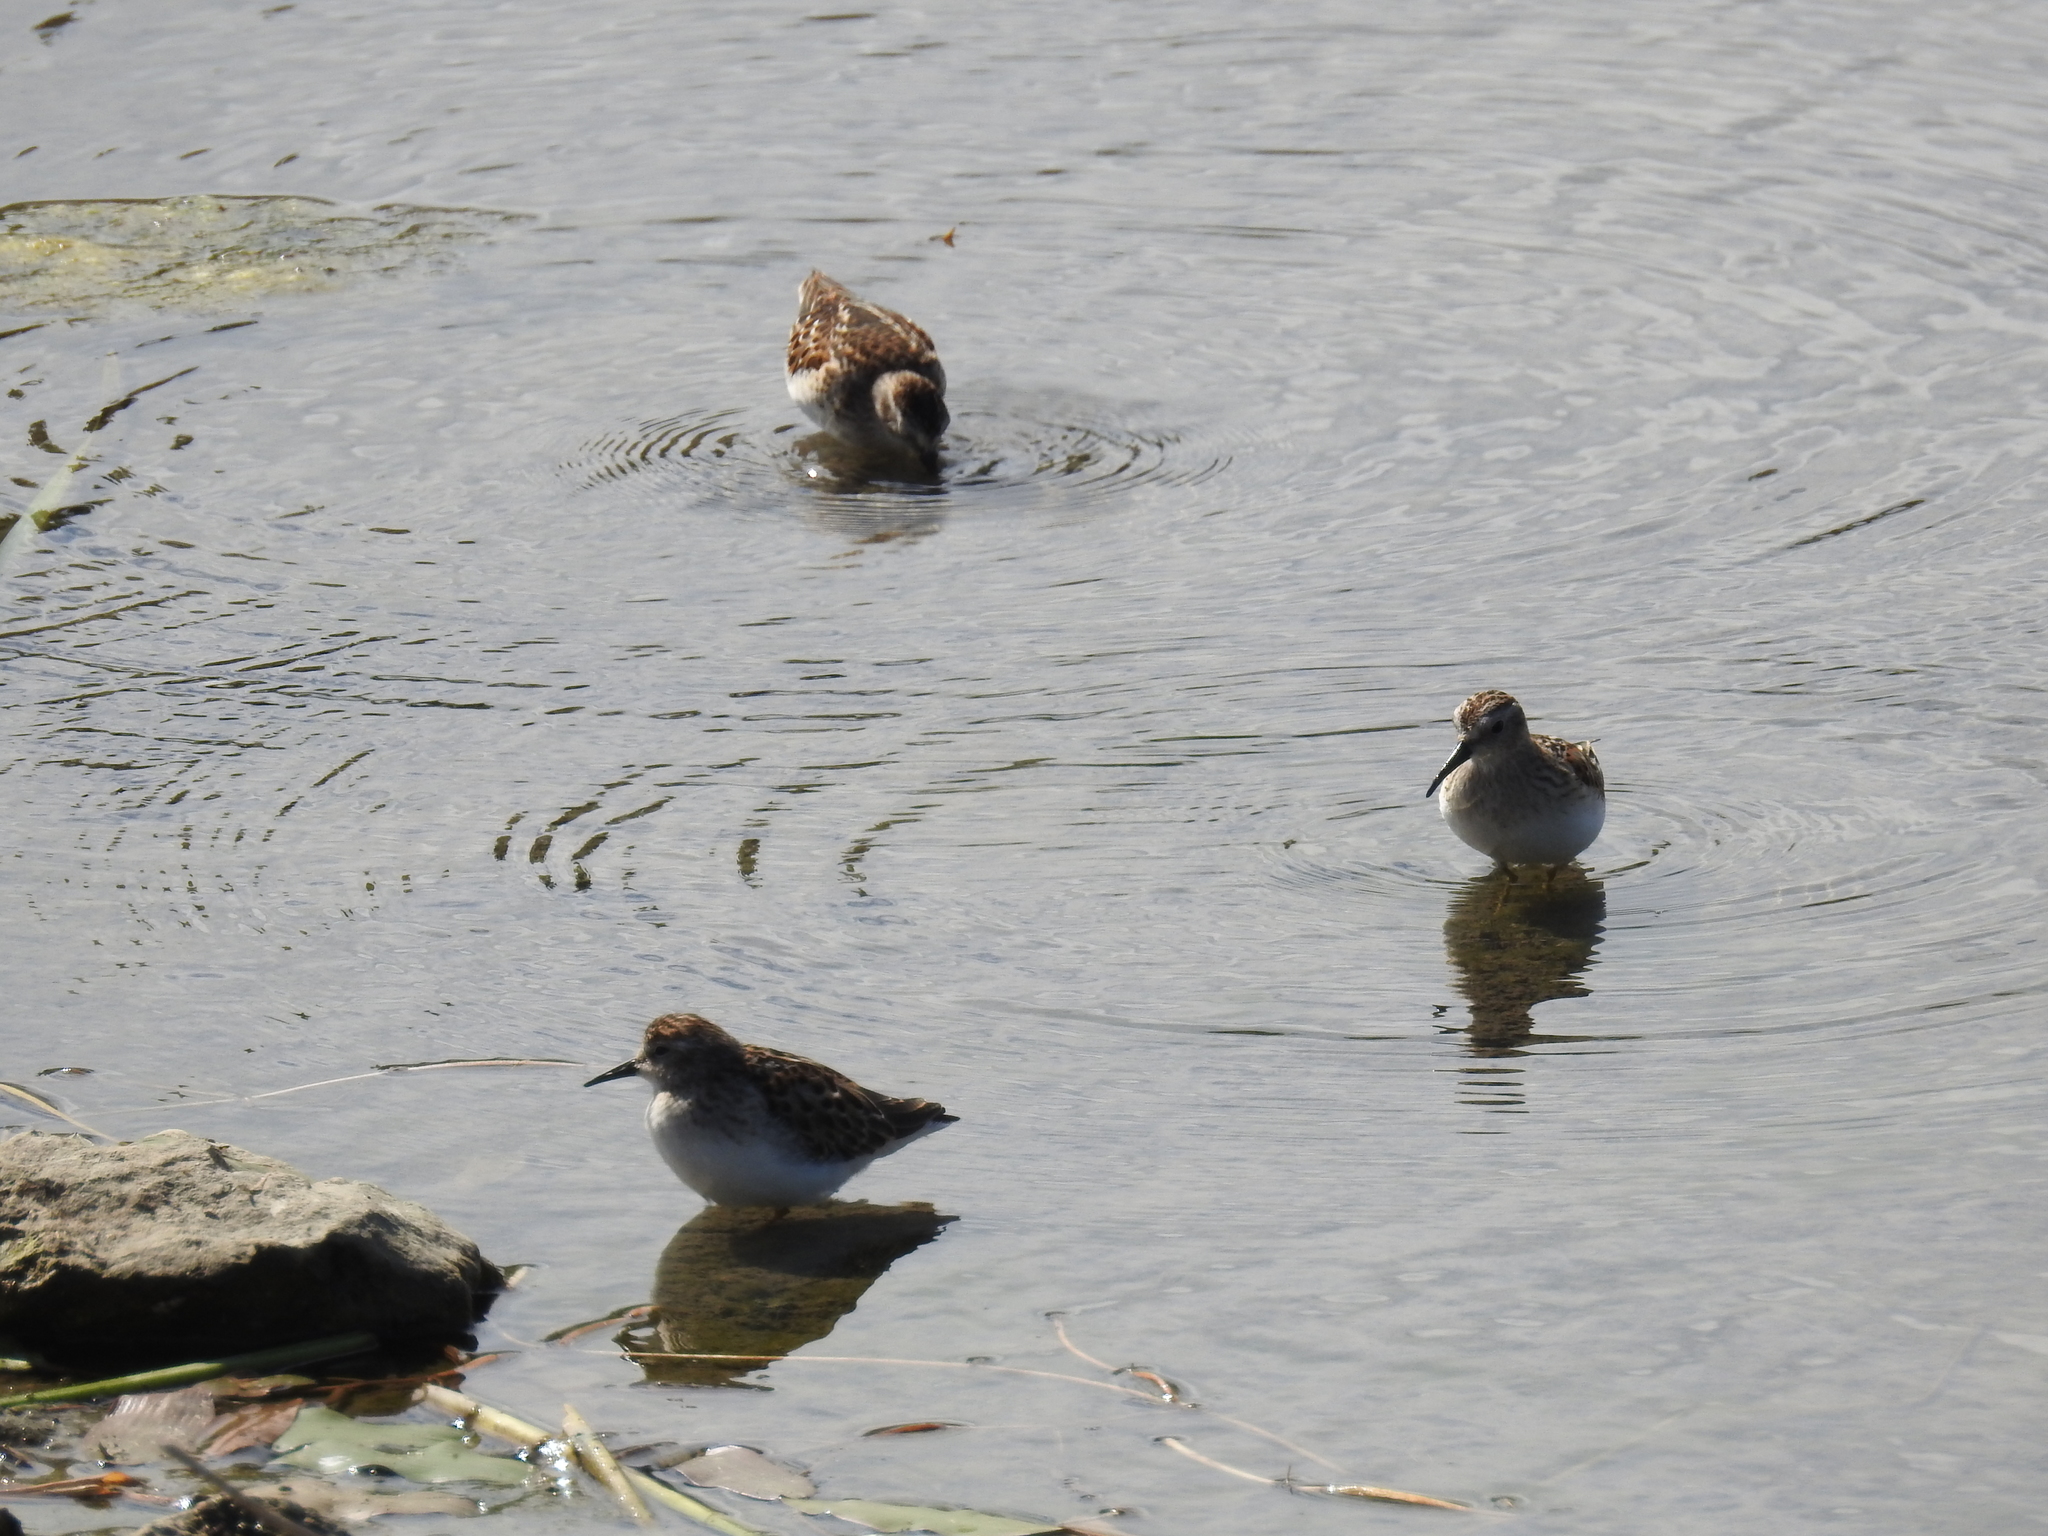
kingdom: Animalia
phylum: Chordata
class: Aves
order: Charadriiformes
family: Scolopacidae
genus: Calidris
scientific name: Calidris minutilla
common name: Least sandpiper
